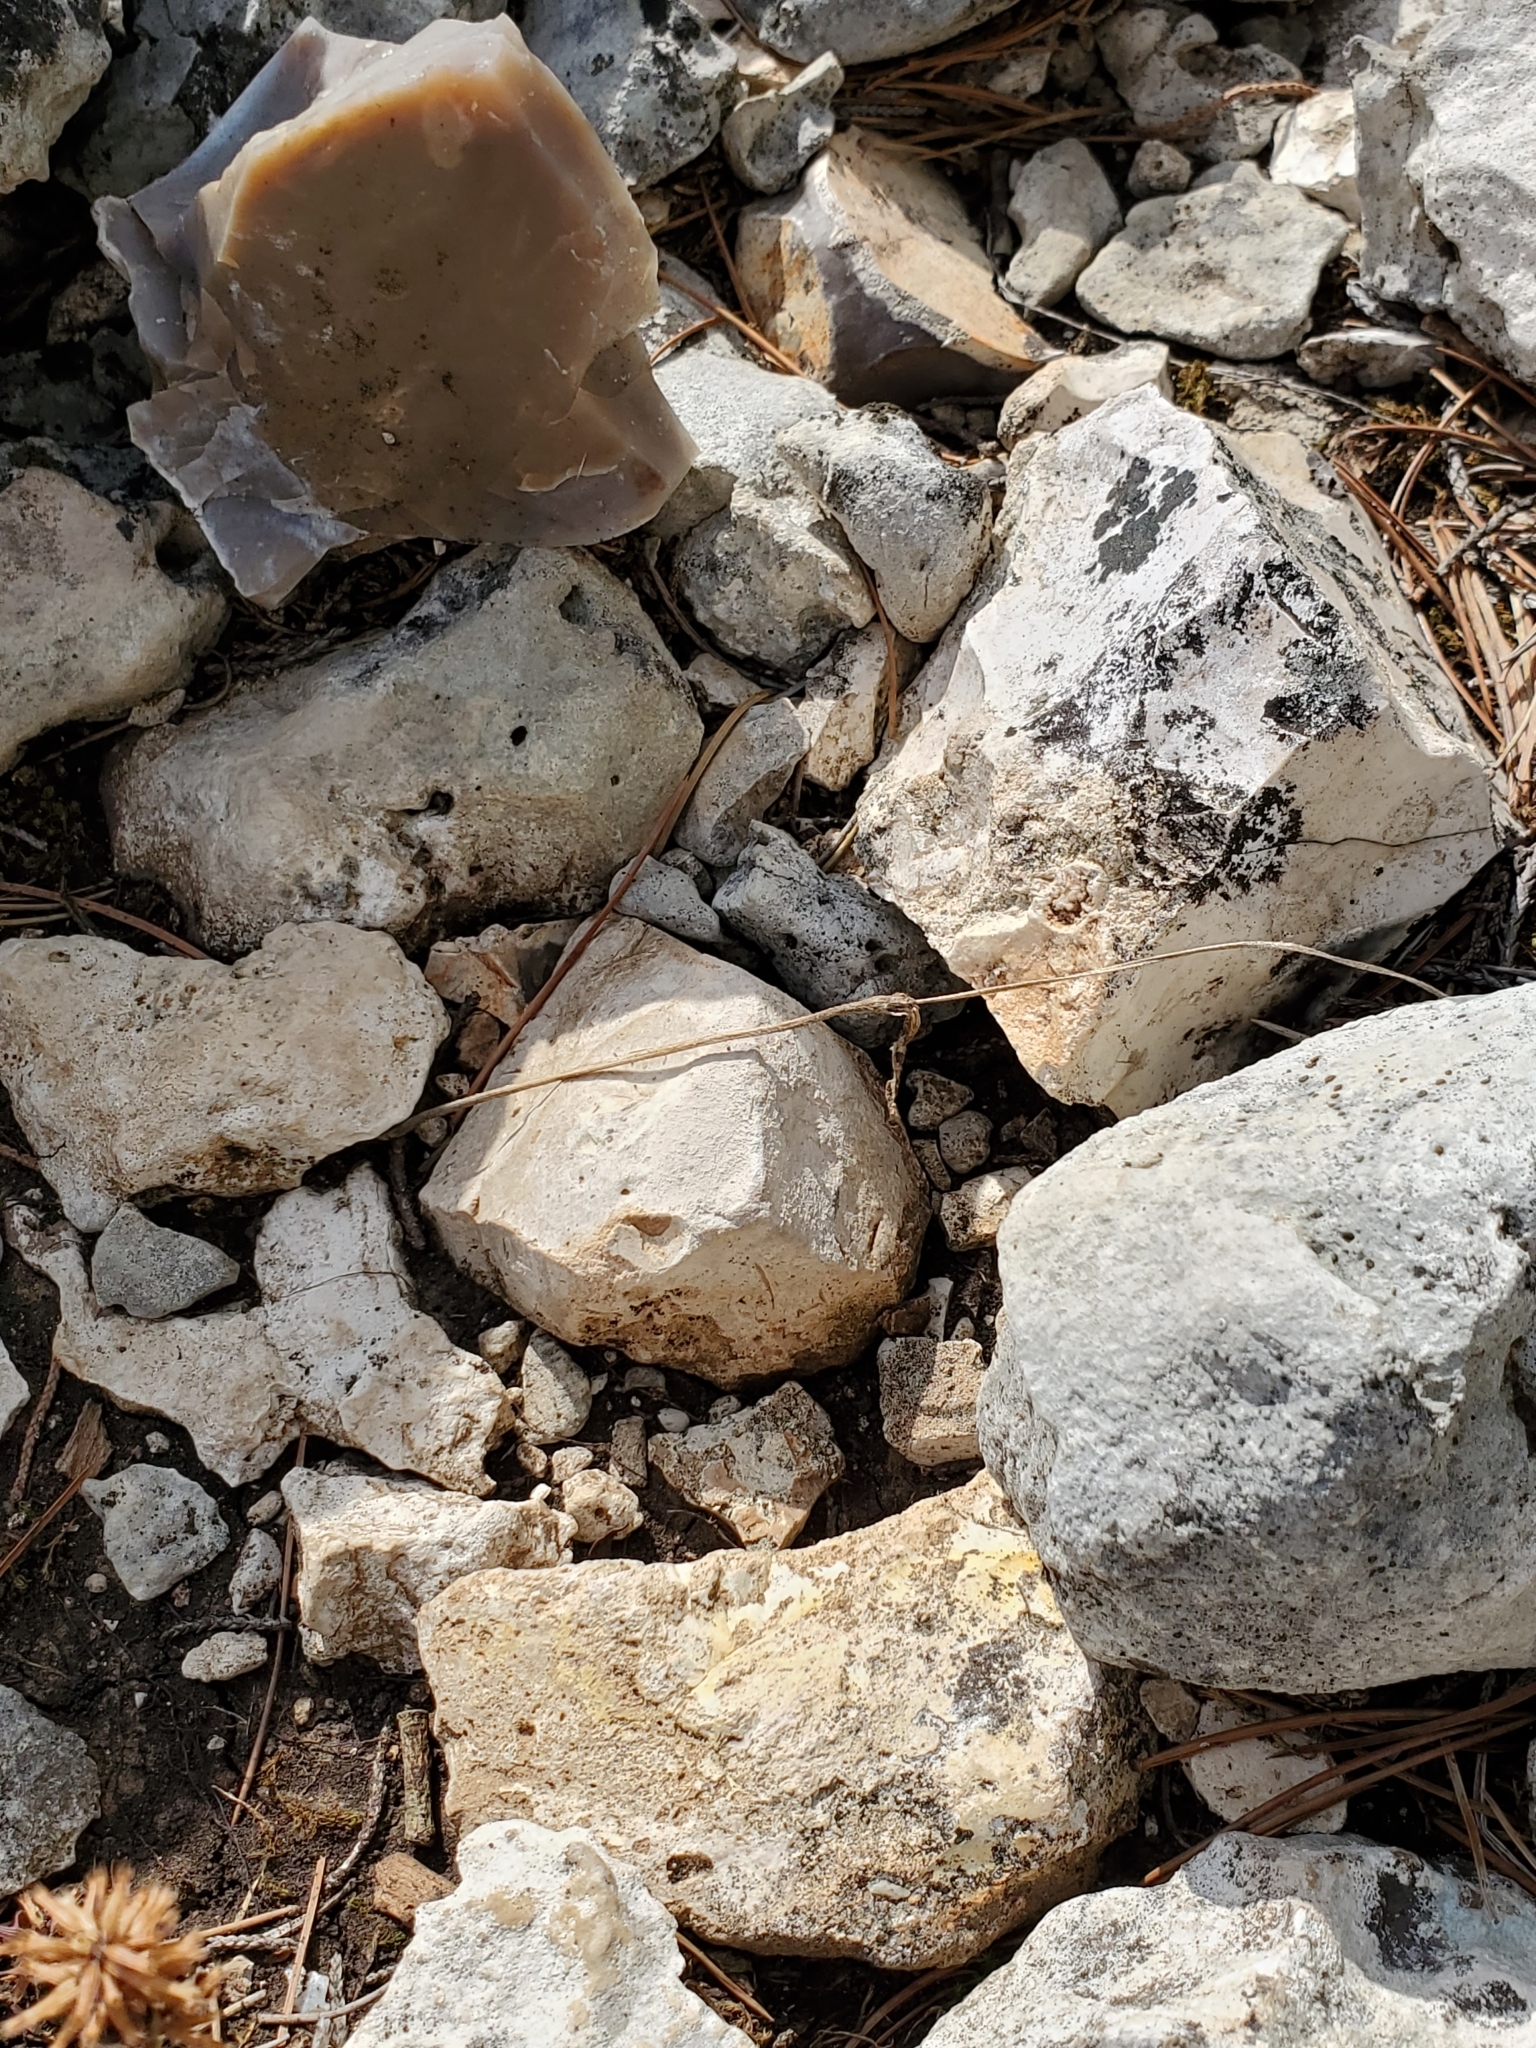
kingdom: Plantae
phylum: Tracheophyta
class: Magnoliopsida
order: Ranunculales
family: Ranunculaceae
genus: Anemone
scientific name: Anemone edwardsiana
